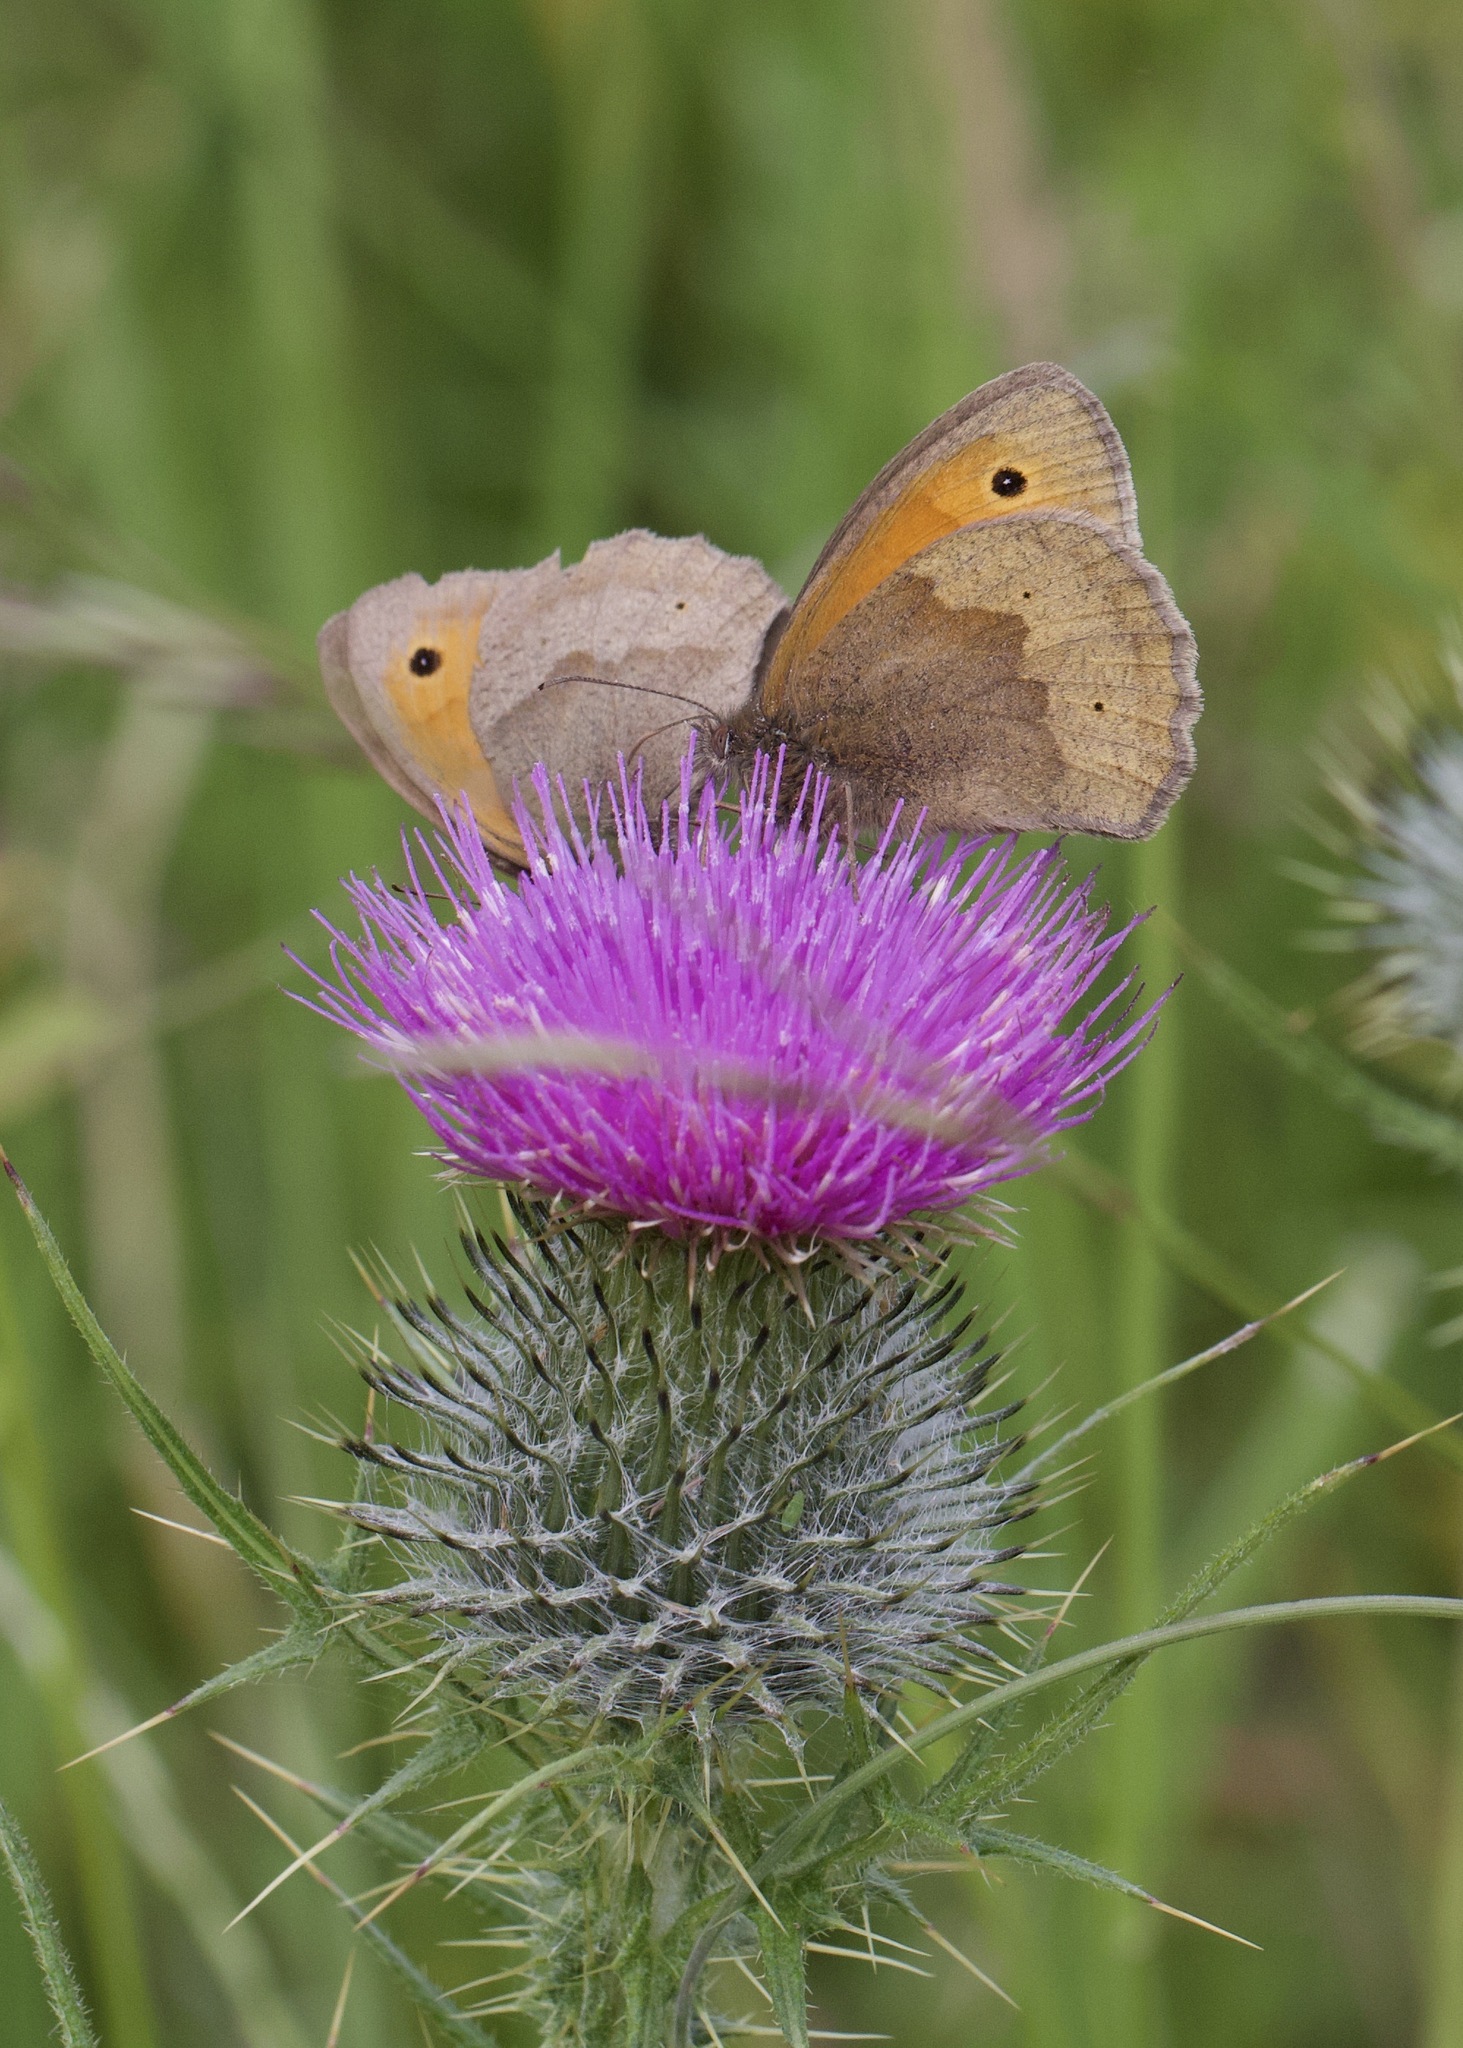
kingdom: Animalia
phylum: Arthropoda
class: Insecta
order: Lepidoptera
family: Nymphalidae
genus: Maniola
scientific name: Maniola jurtina
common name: Meadow brown
